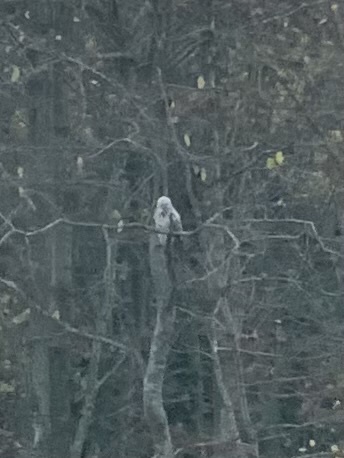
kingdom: Animalia
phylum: Chordata
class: Aves
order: Accipitriformes
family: Accipitridae
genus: Buteo
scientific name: Buteo buteo
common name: Common buzzard
